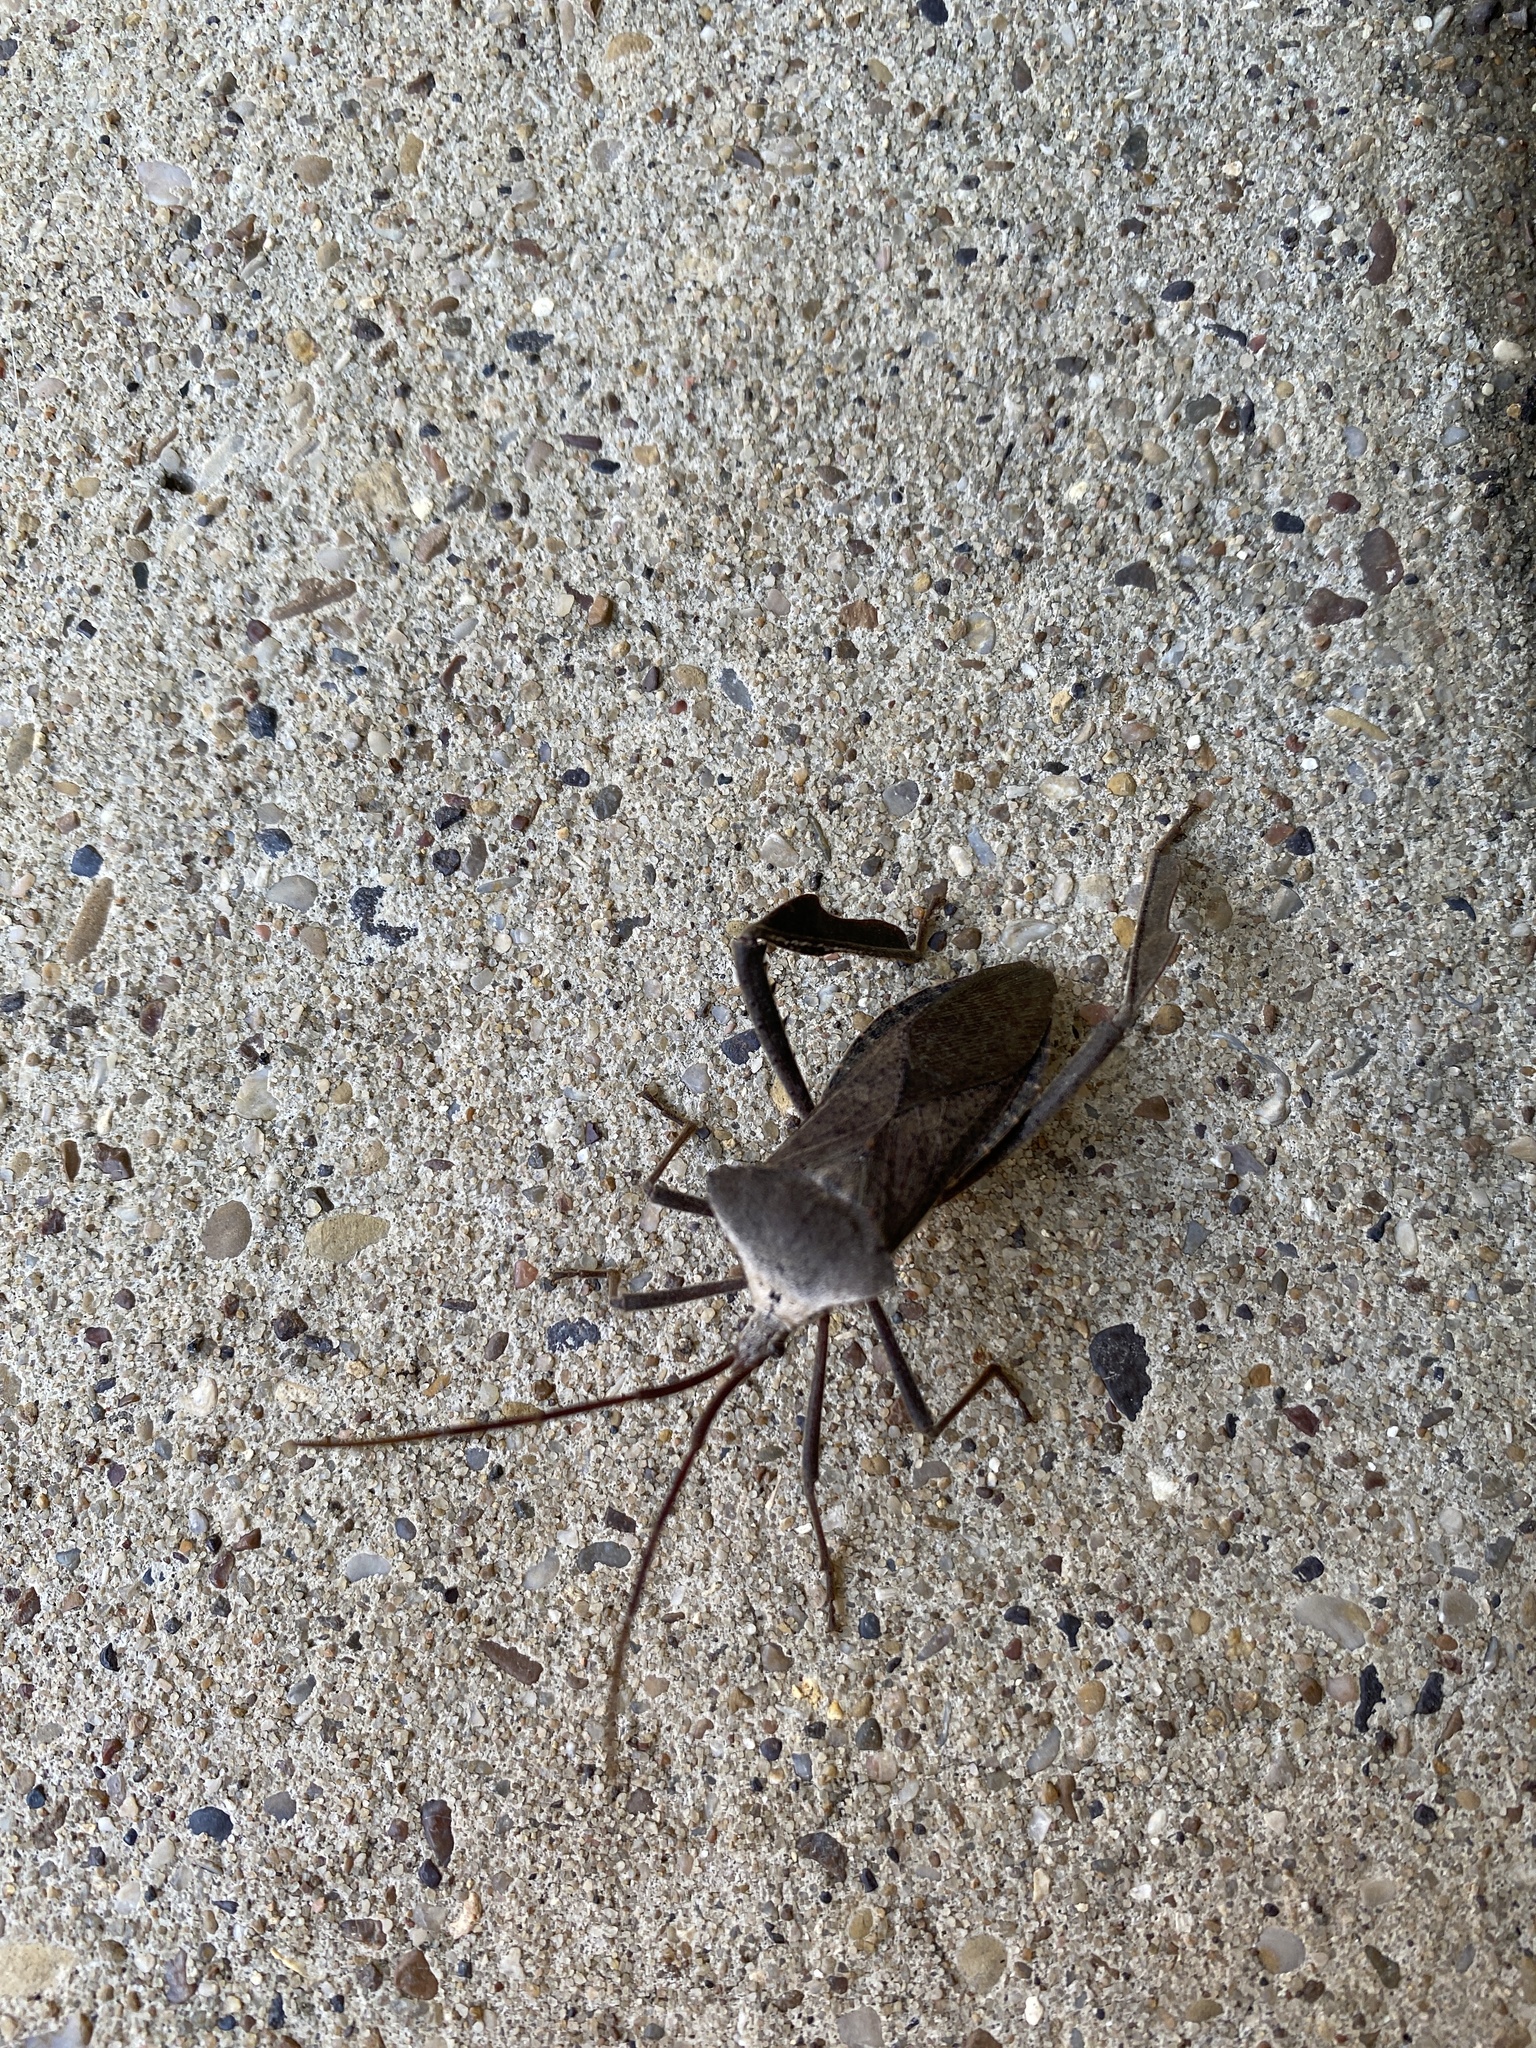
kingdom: Animalia
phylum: Arthropoda
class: Insecta
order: Hemiptera
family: Coreidae
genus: Acanthocephala
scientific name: Acanthocephala declivis
